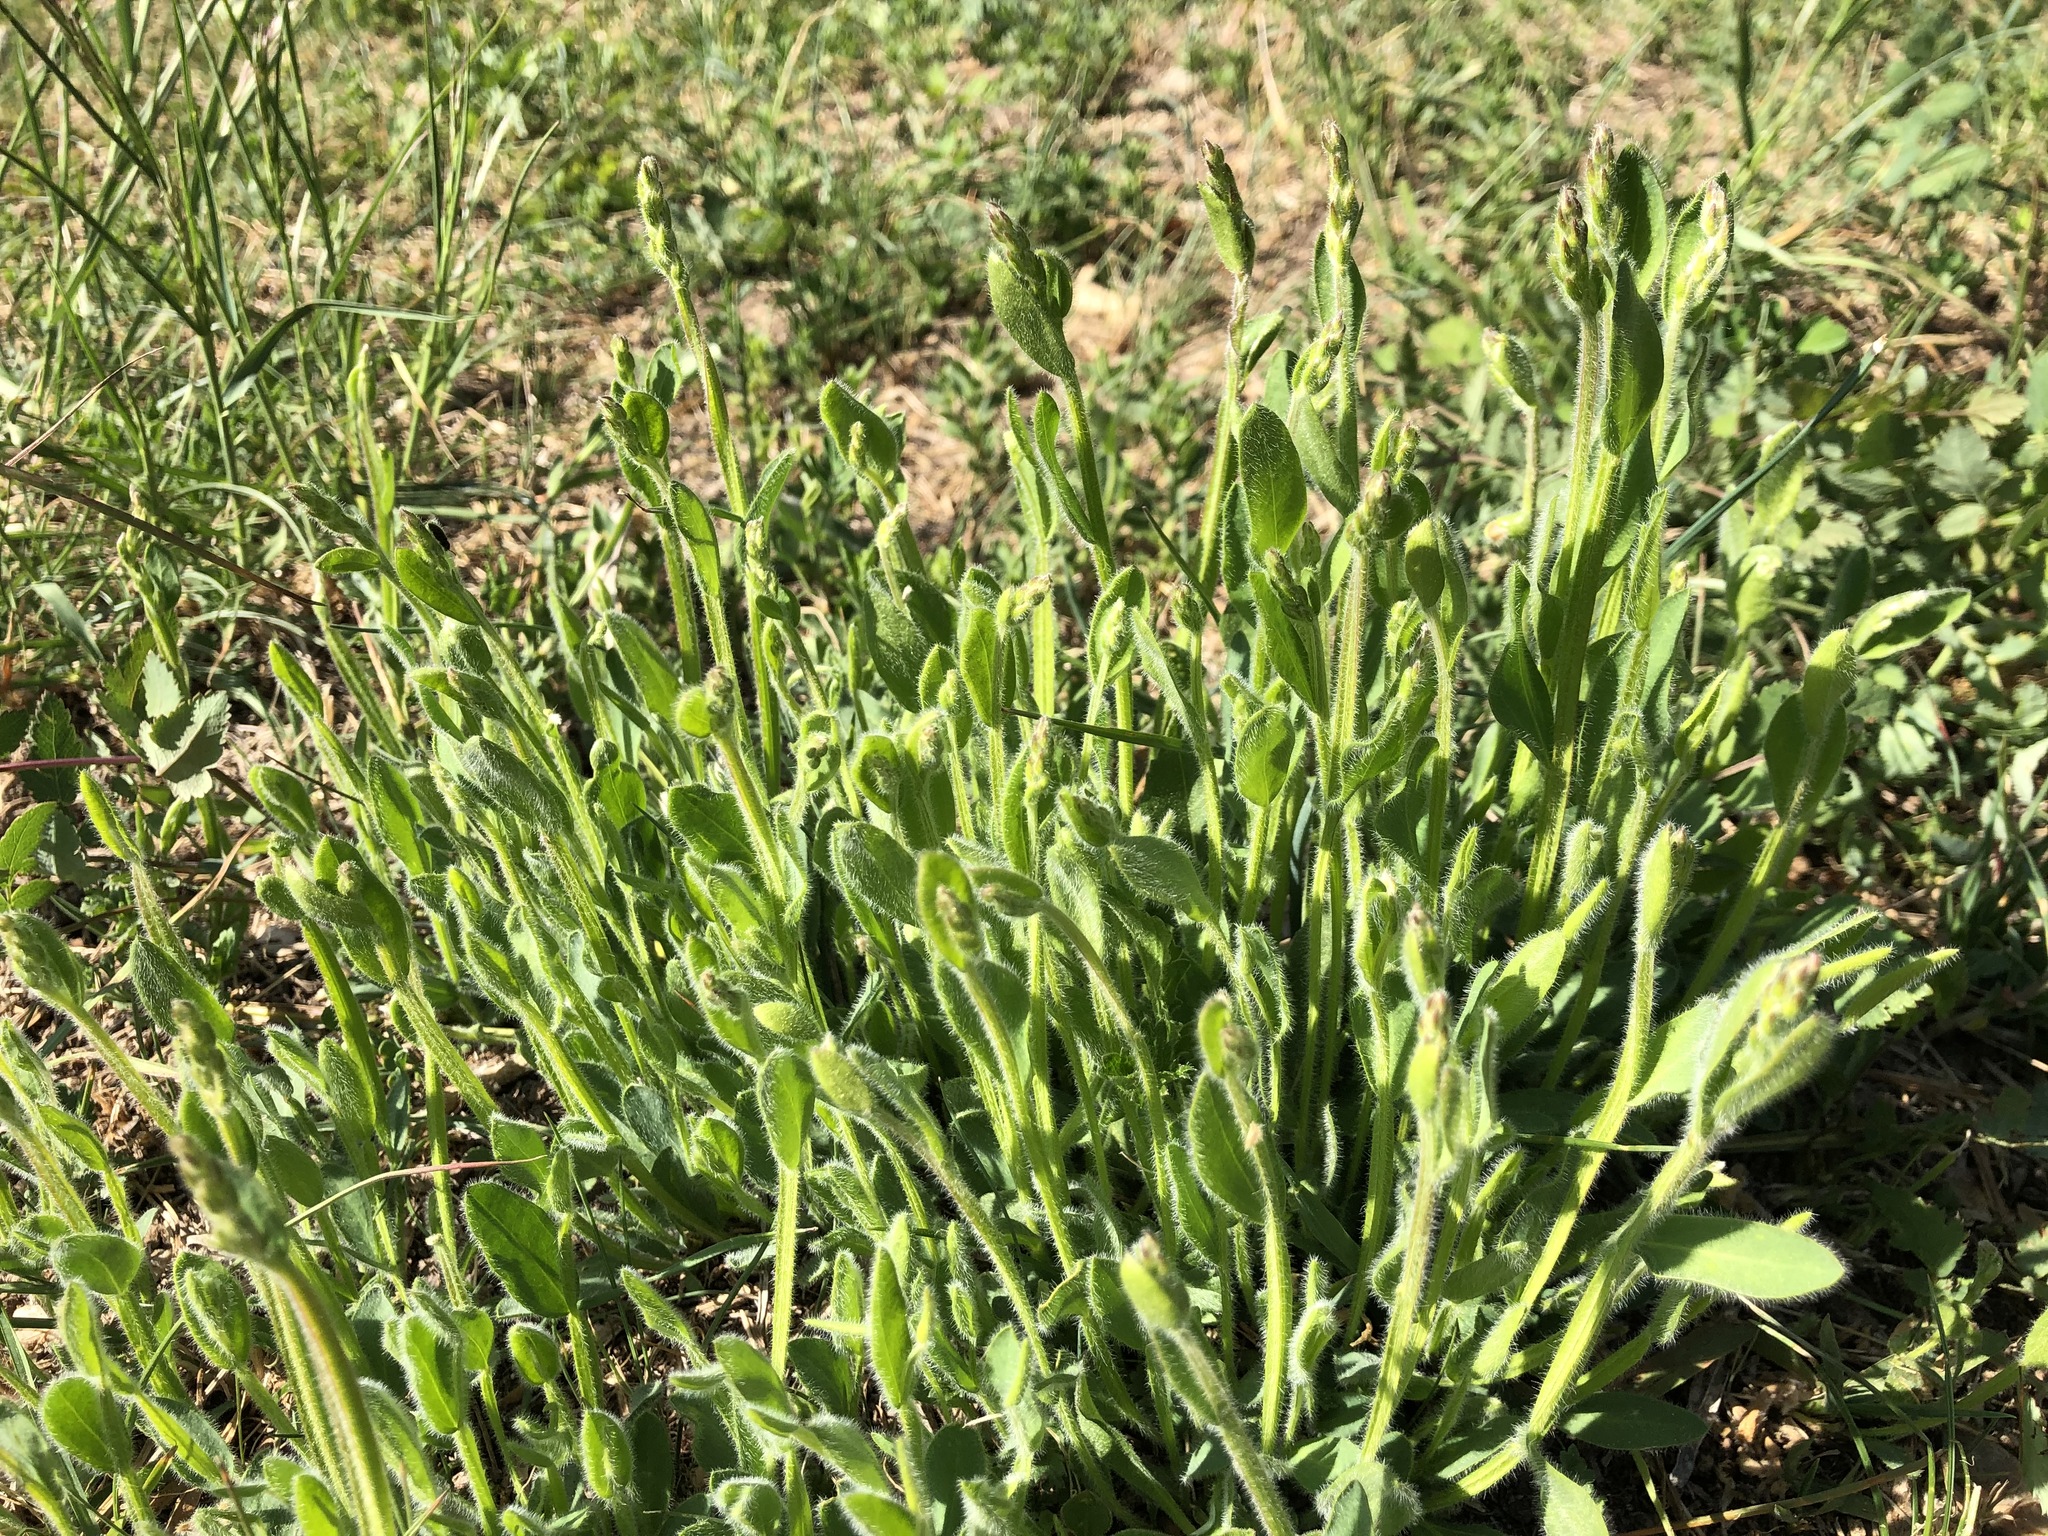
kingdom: Plantae
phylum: Tracheophyta
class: Magnoliopsida
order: Fabales
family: Fabaceae
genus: Genista
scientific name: Genista sagittalis
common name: Winged greenweed
